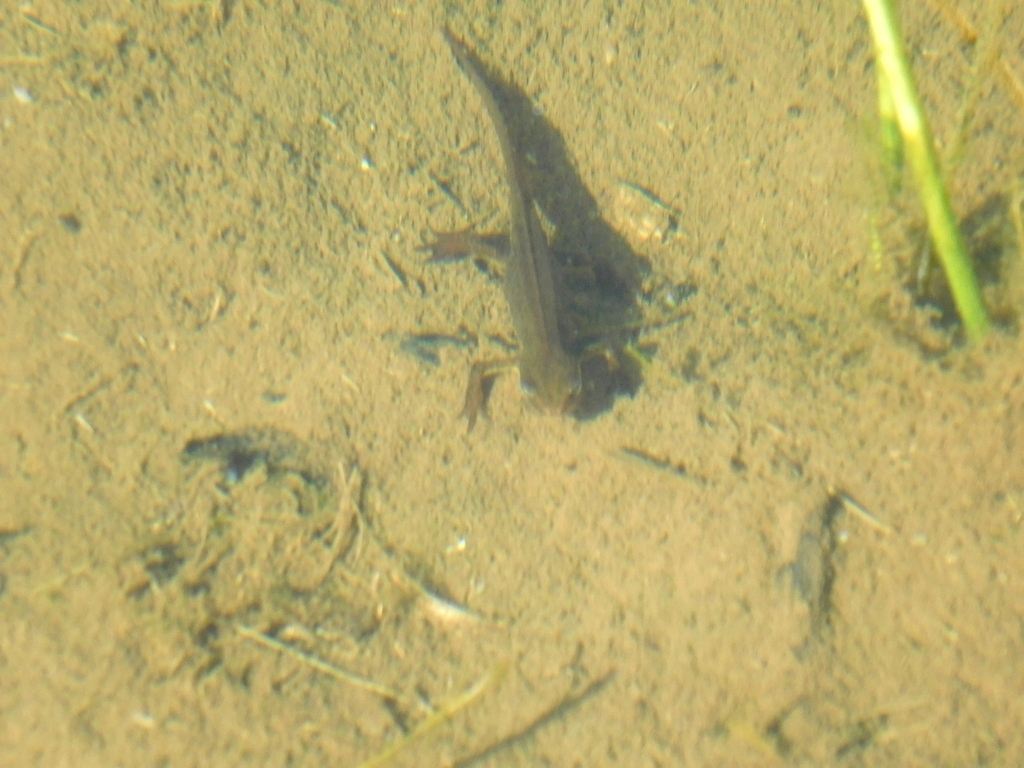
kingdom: Animalia
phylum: Chordata
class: Amphibia
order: Caudata
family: Salamandridae
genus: Lissotriton
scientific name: Lissotriton lantzi
